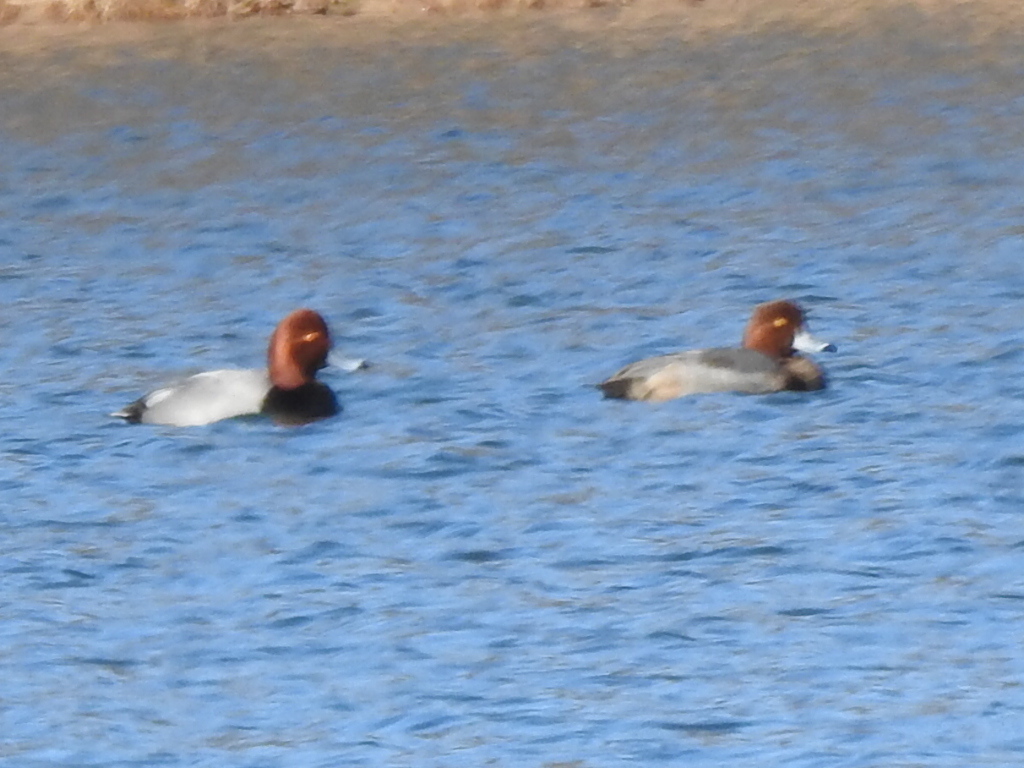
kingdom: Animalia
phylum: Chordata
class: Aves
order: Anseriformes
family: Anatidae
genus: Aythya
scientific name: Aythya americana
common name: Redhead
